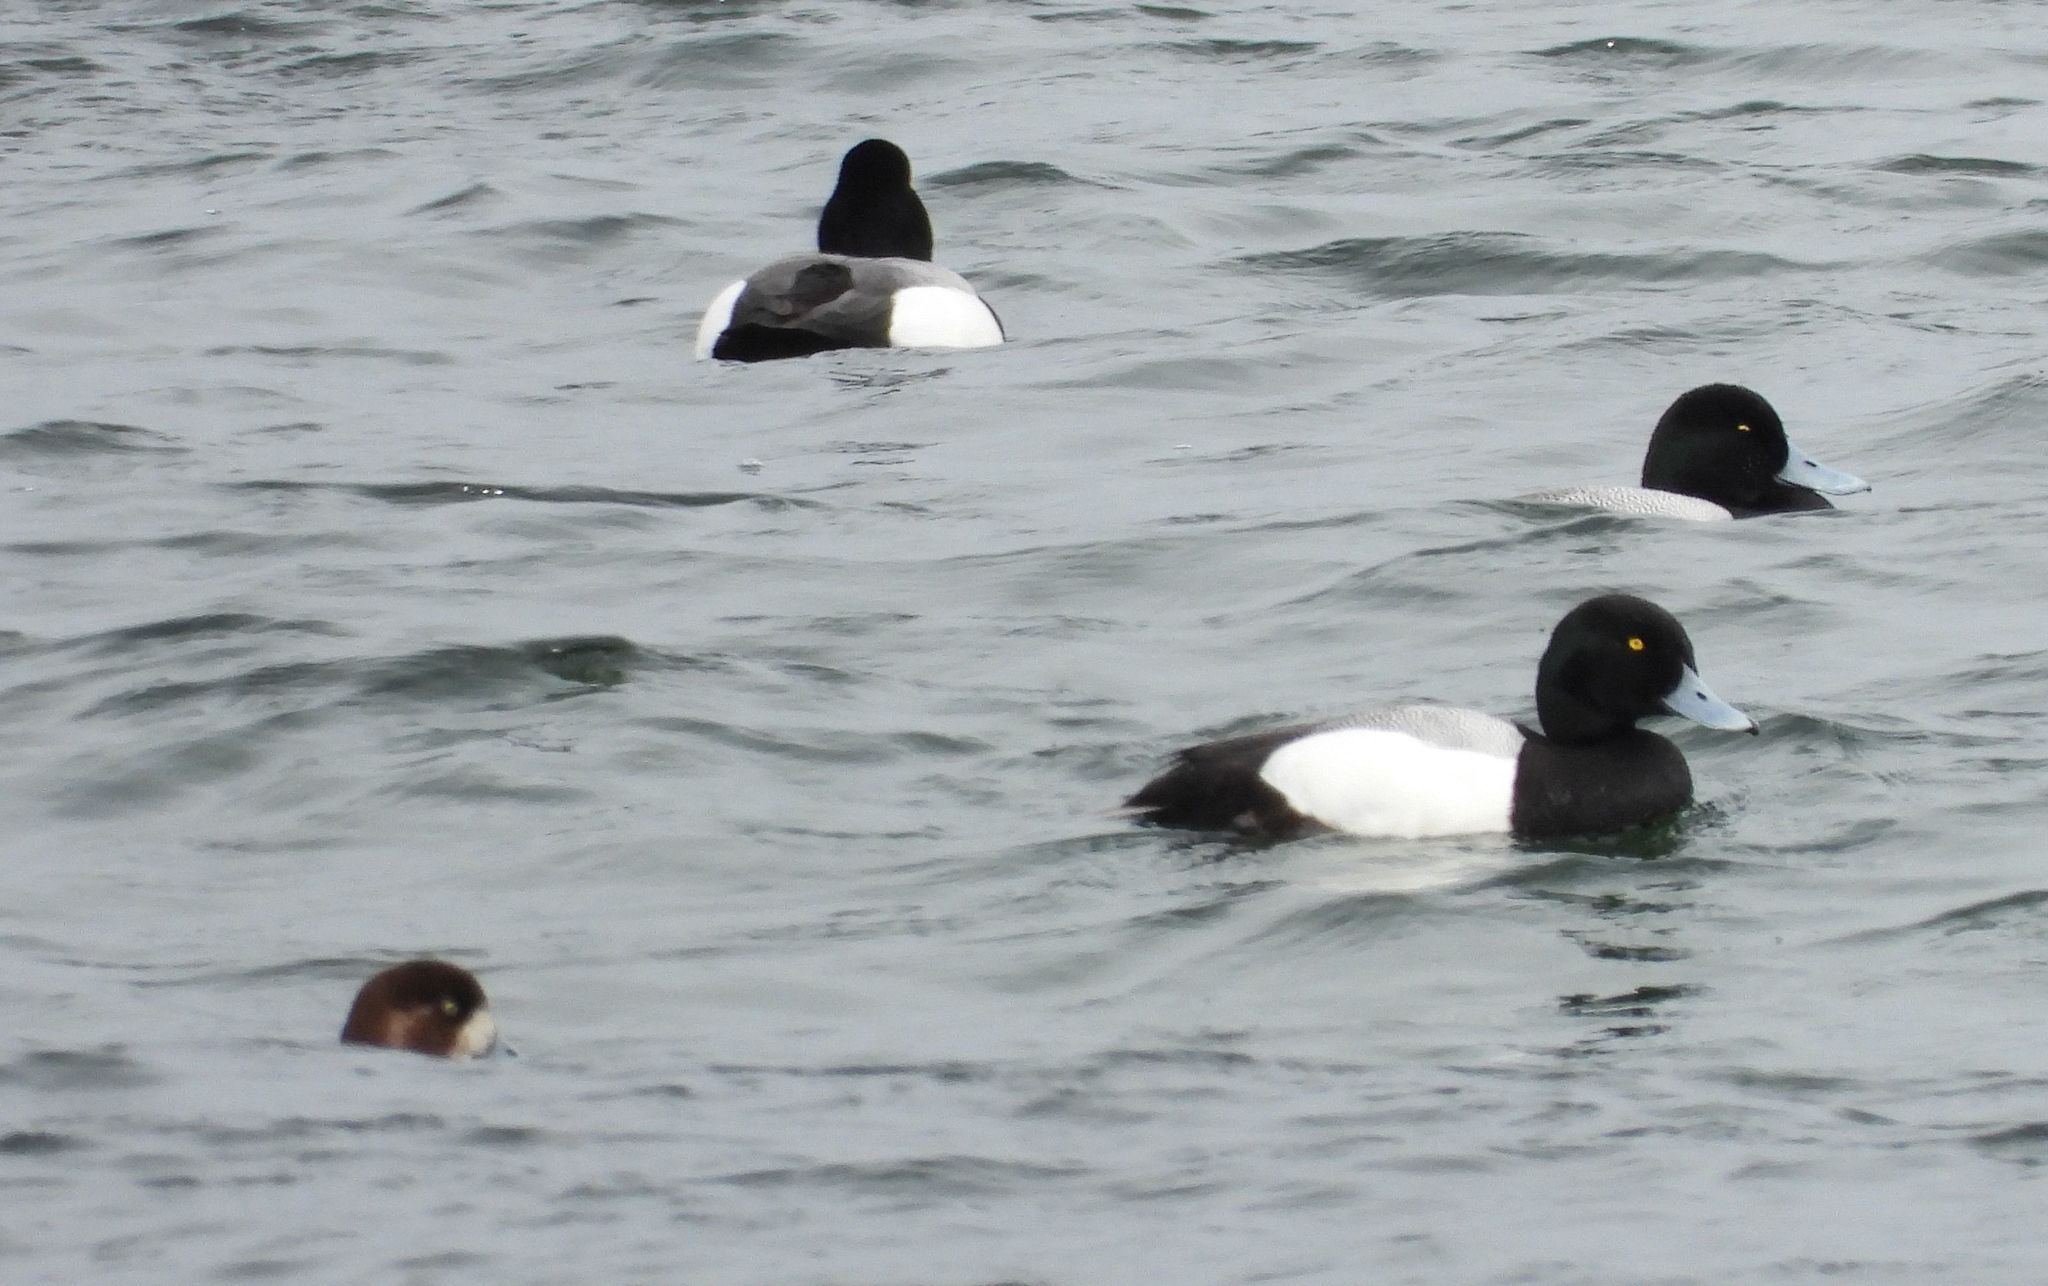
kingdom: Animalia
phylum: Chordata
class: Aves
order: Anseriformes
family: Anatidae
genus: Aythya
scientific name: Aythya marila
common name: Greater scaup
